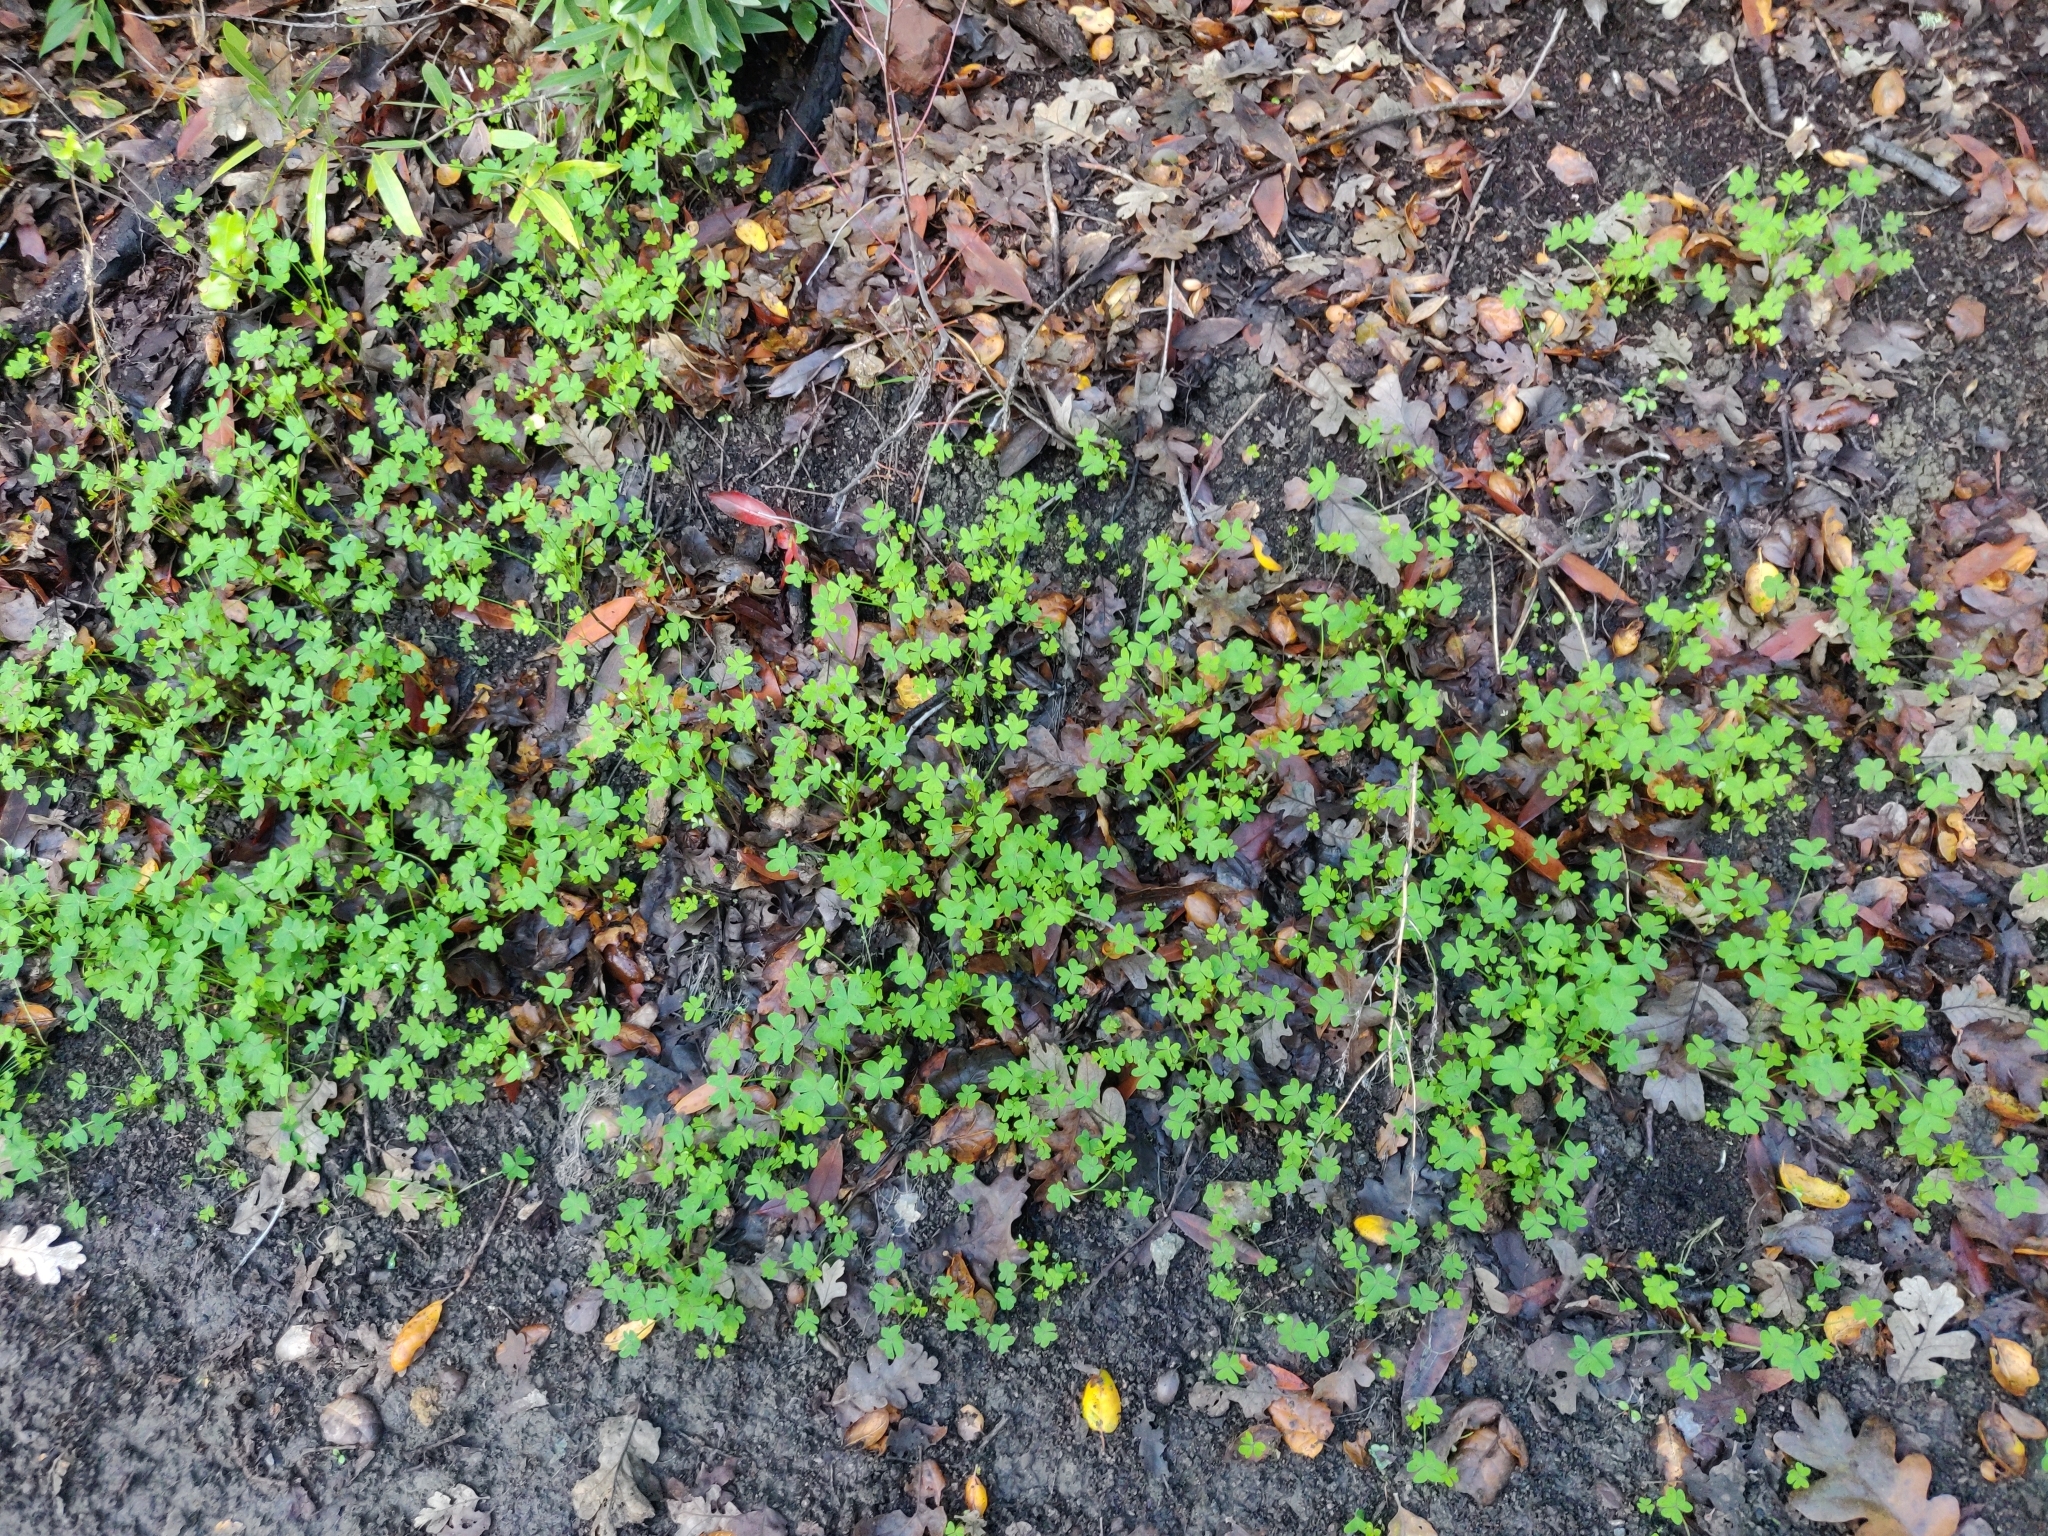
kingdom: Plantae
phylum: Tracheophyta
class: Magnoliopsida
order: Oxalidales
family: Oxalidaceae
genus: Oxalis
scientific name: Oxalis pes-caprae
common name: Bermuda-buttercup
